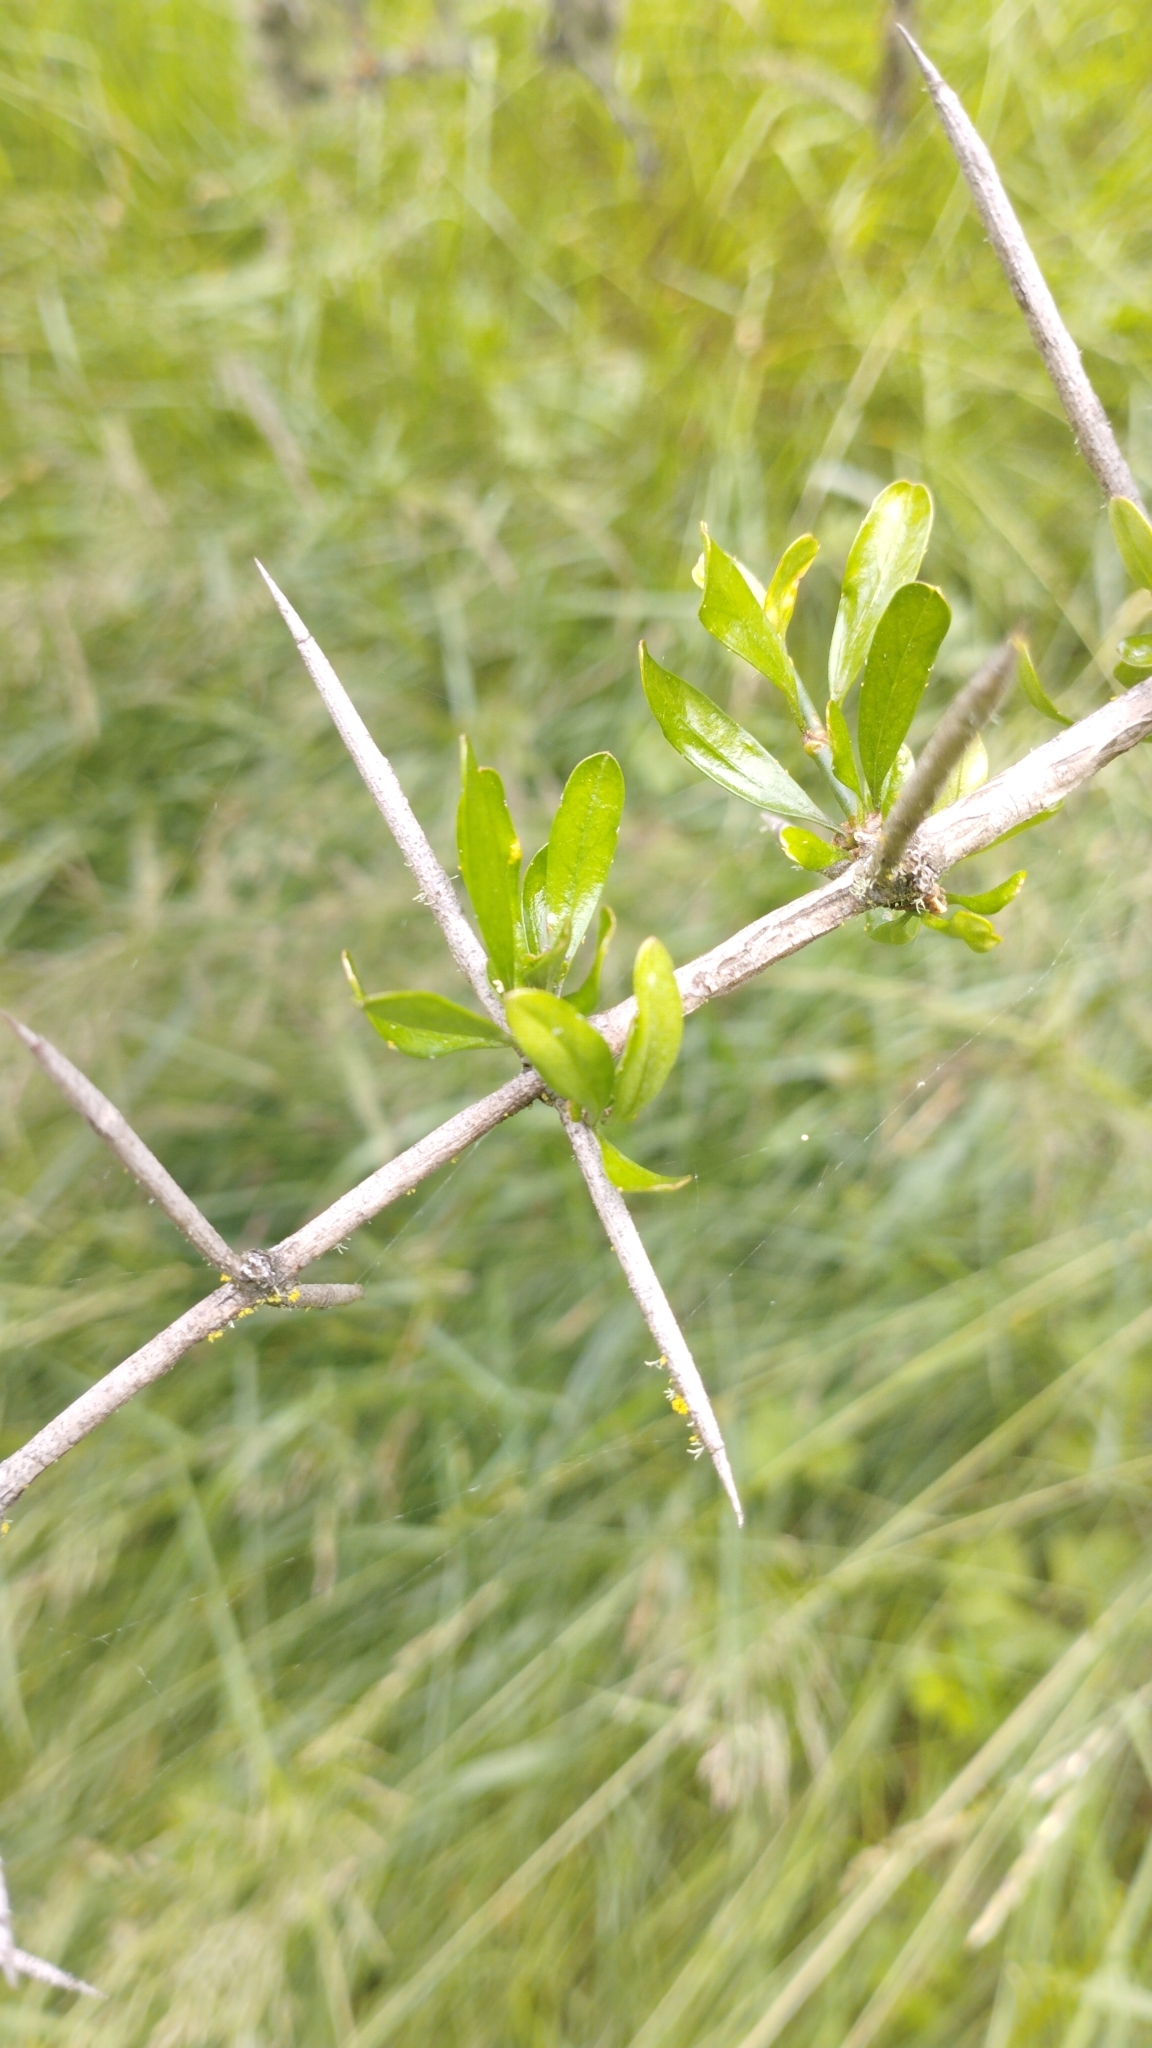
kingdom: Plantae
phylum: Tracheophyta
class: Magnoliopsida
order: Rosales
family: Rhamnaceae
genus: Discaria
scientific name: Discaria toumatou
